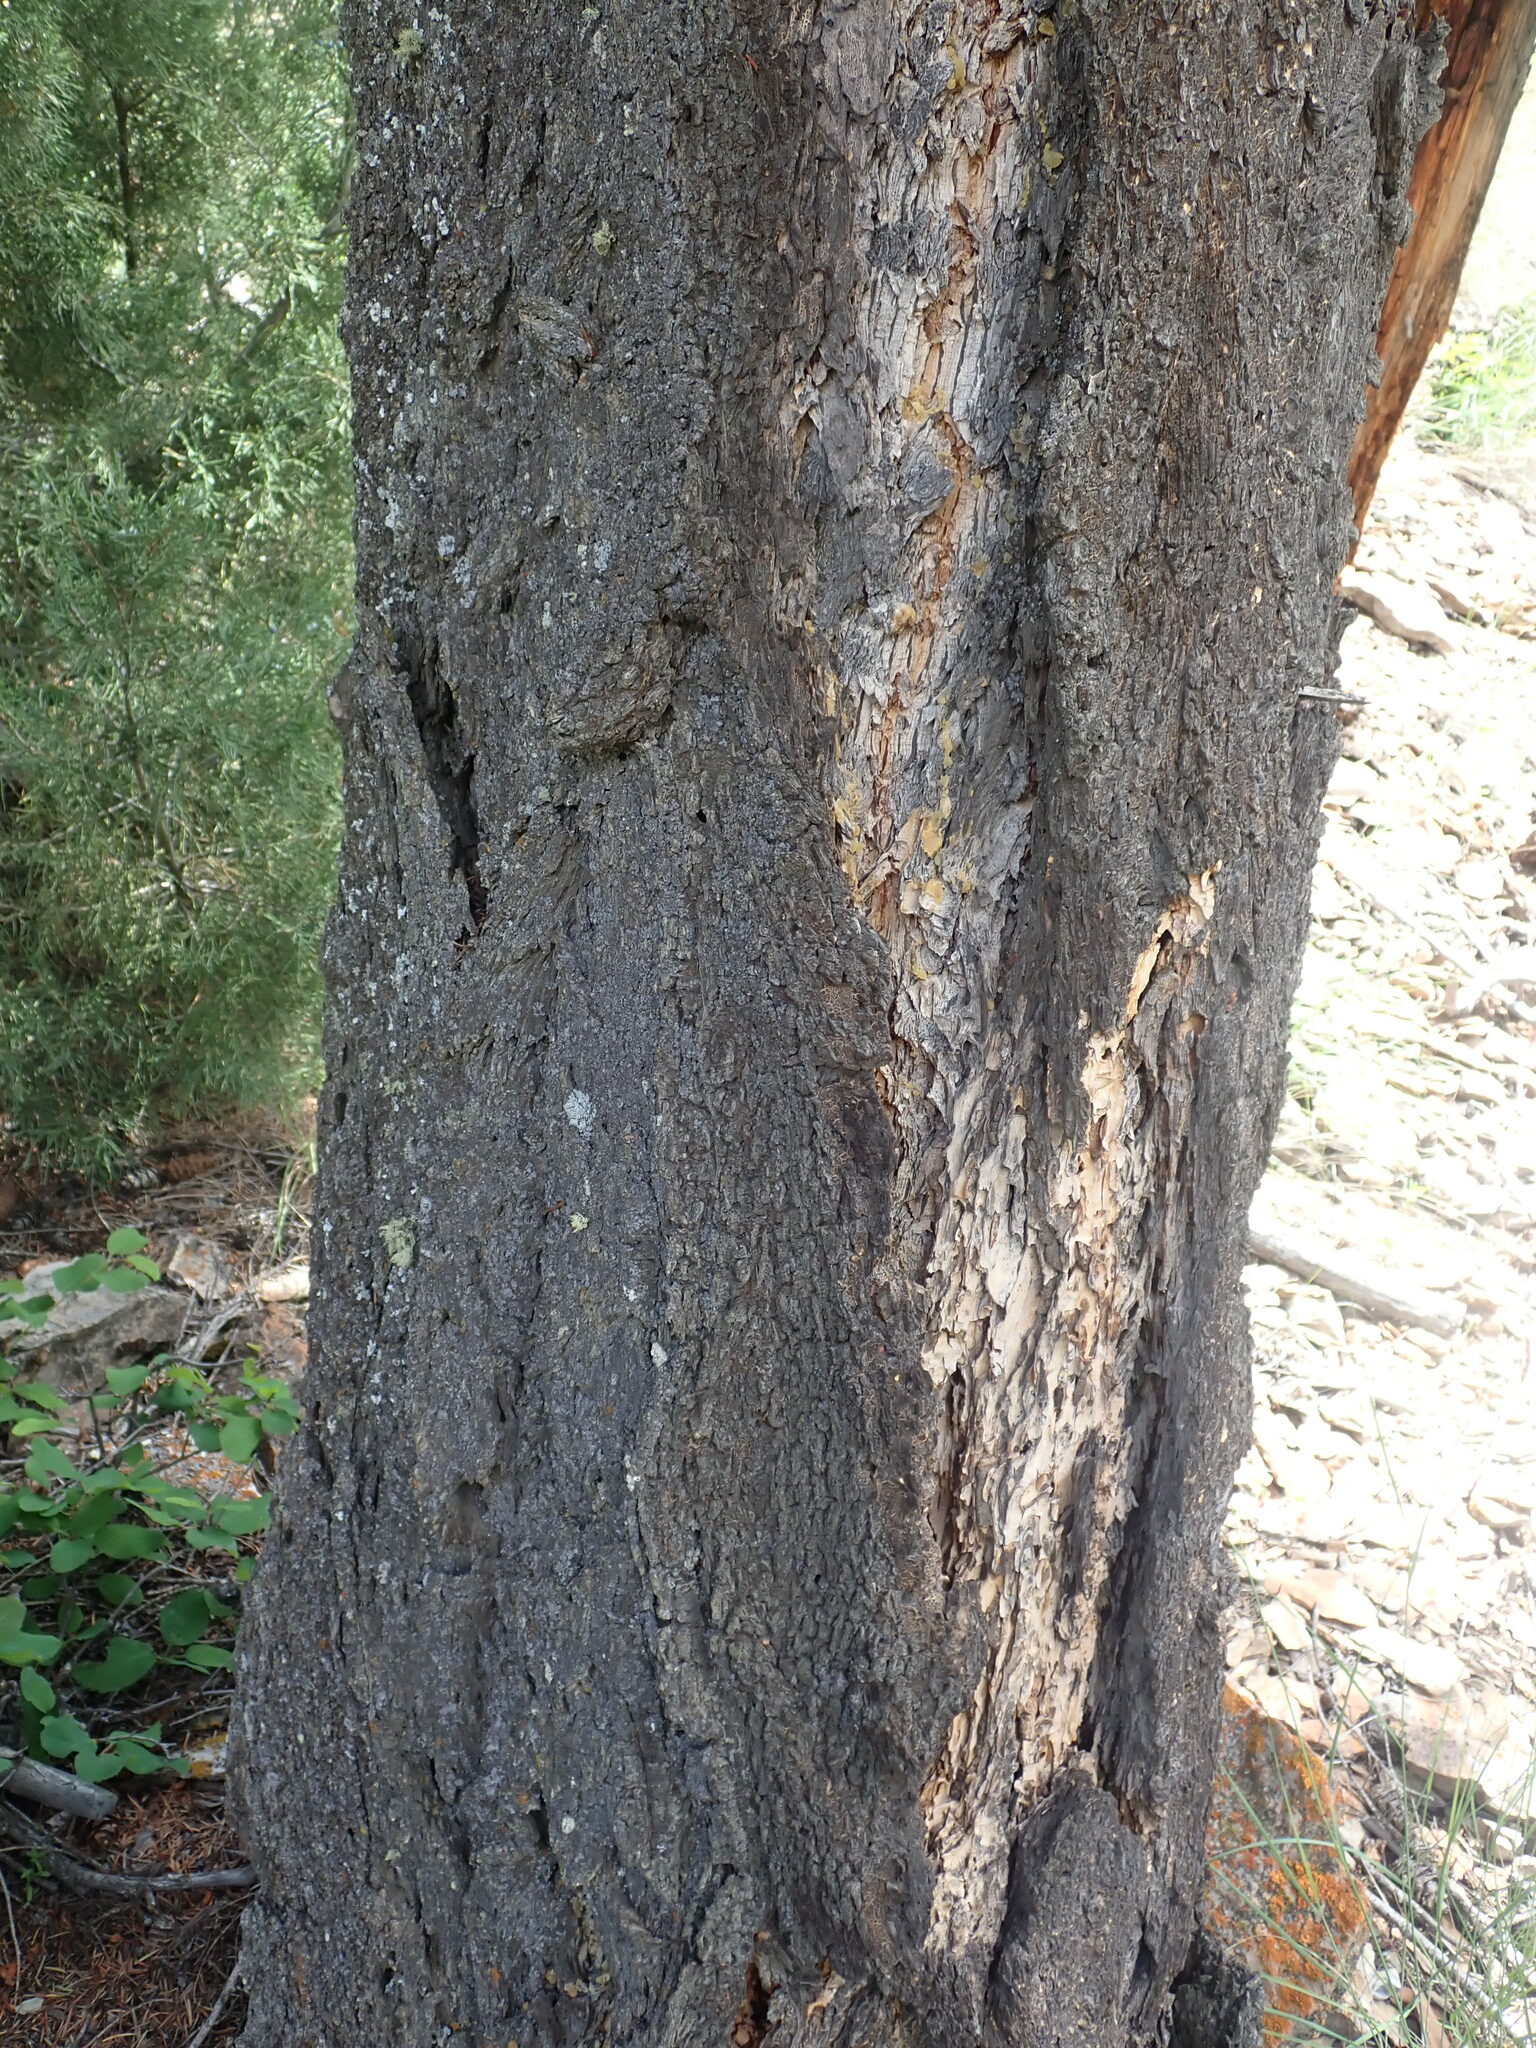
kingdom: Plantae
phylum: Tracheophyta
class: Pinopsida
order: Pinales
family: Pinaceae
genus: Pseudotsuga
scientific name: Pseudotsuga menziesii
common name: Douglas fir
